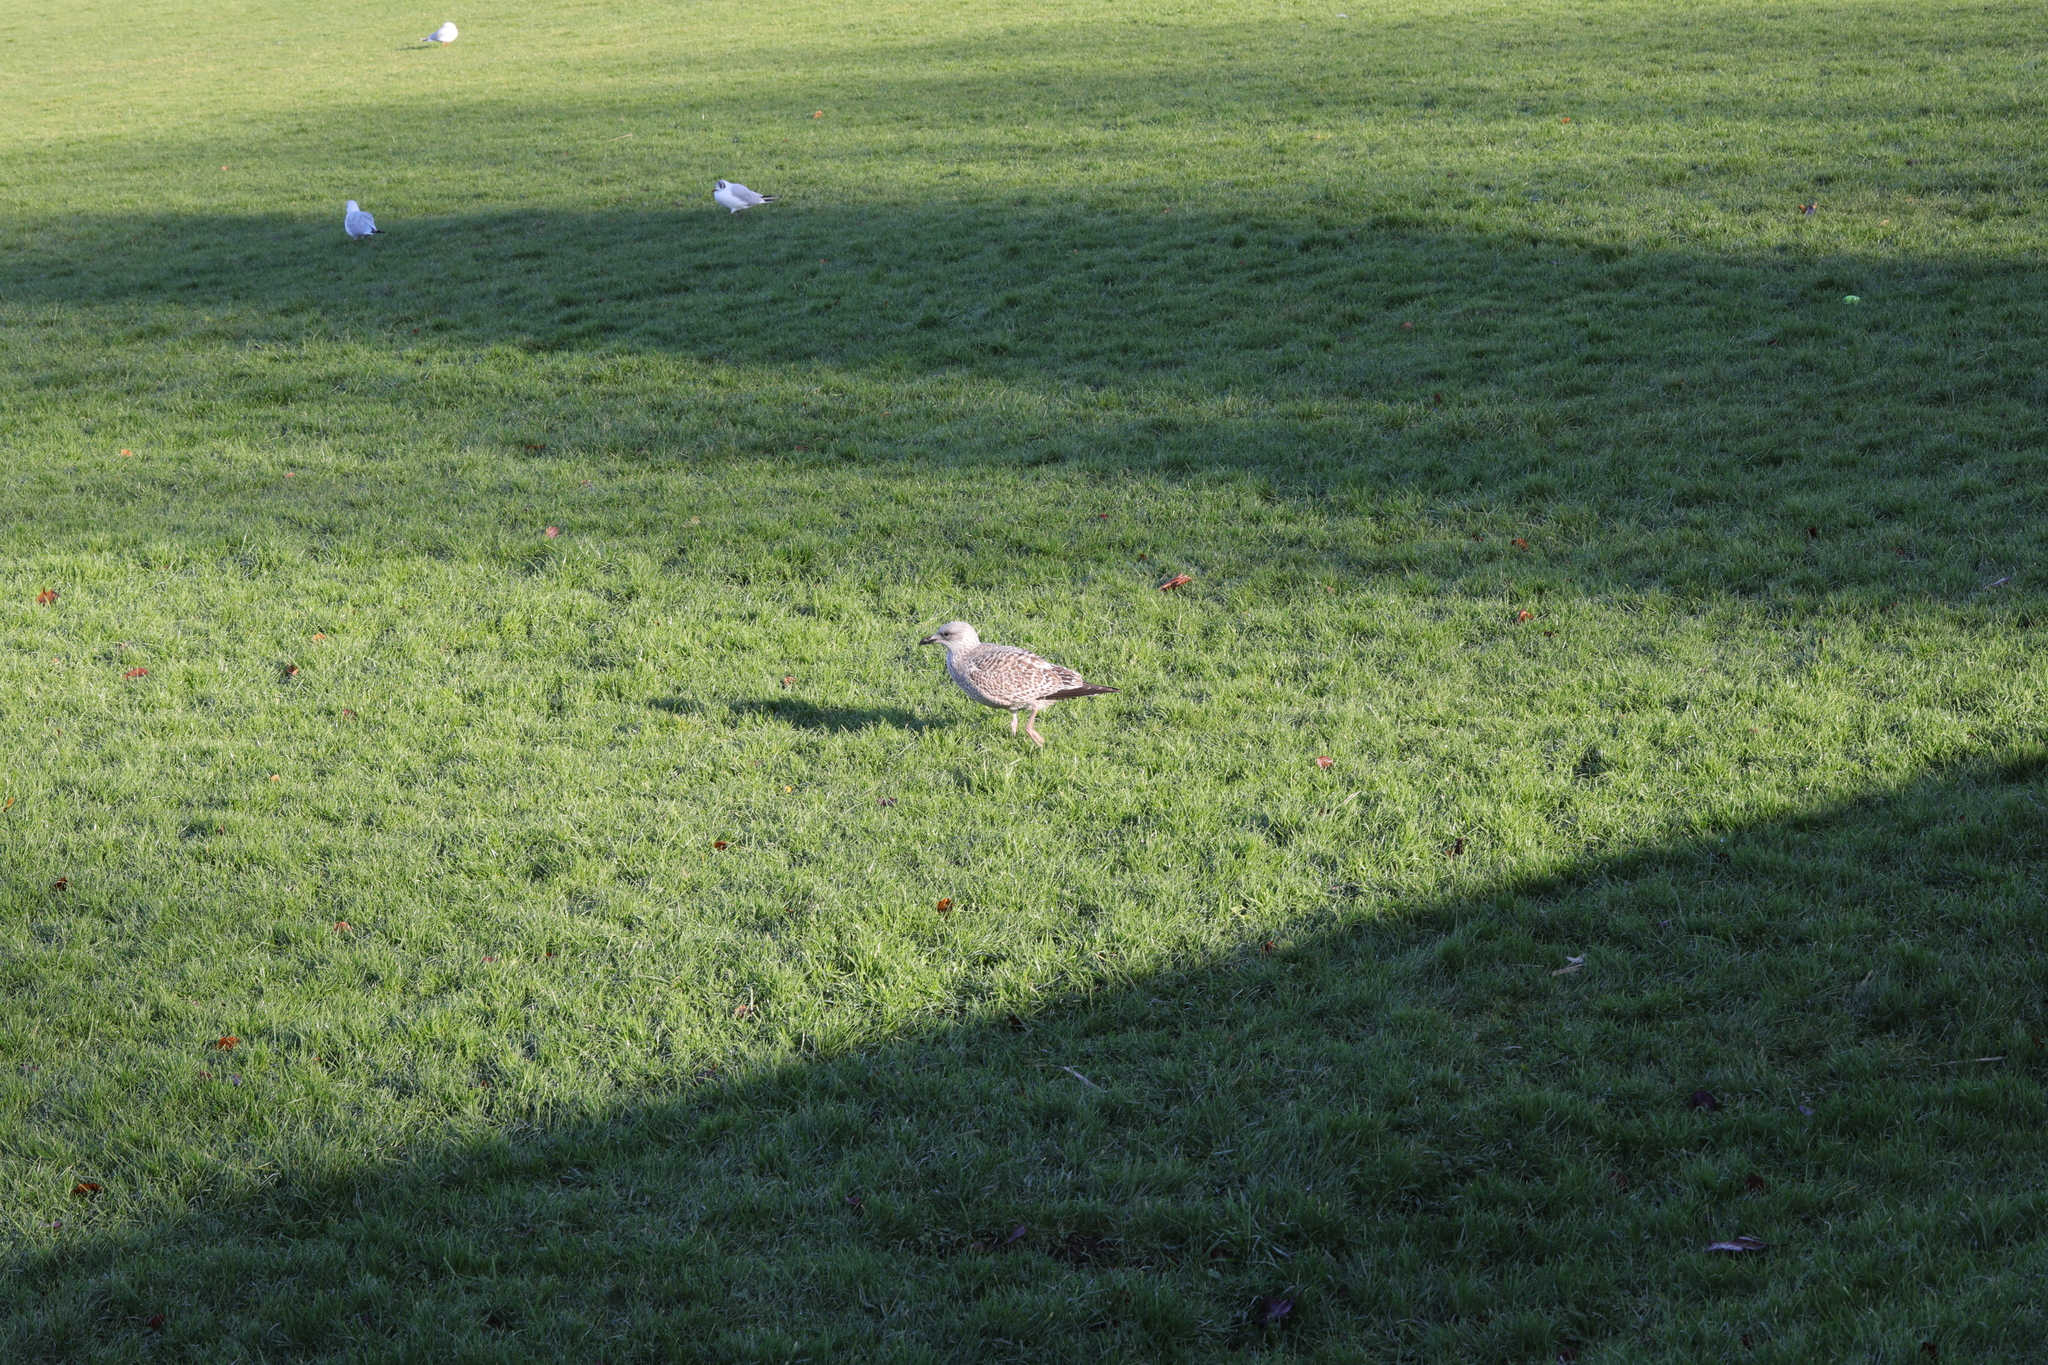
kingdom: Animalia
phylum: Chordata
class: Aves
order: Charadriiformes
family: Laridae
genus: Larus
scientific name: Larus argentatus
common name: Herring gull
